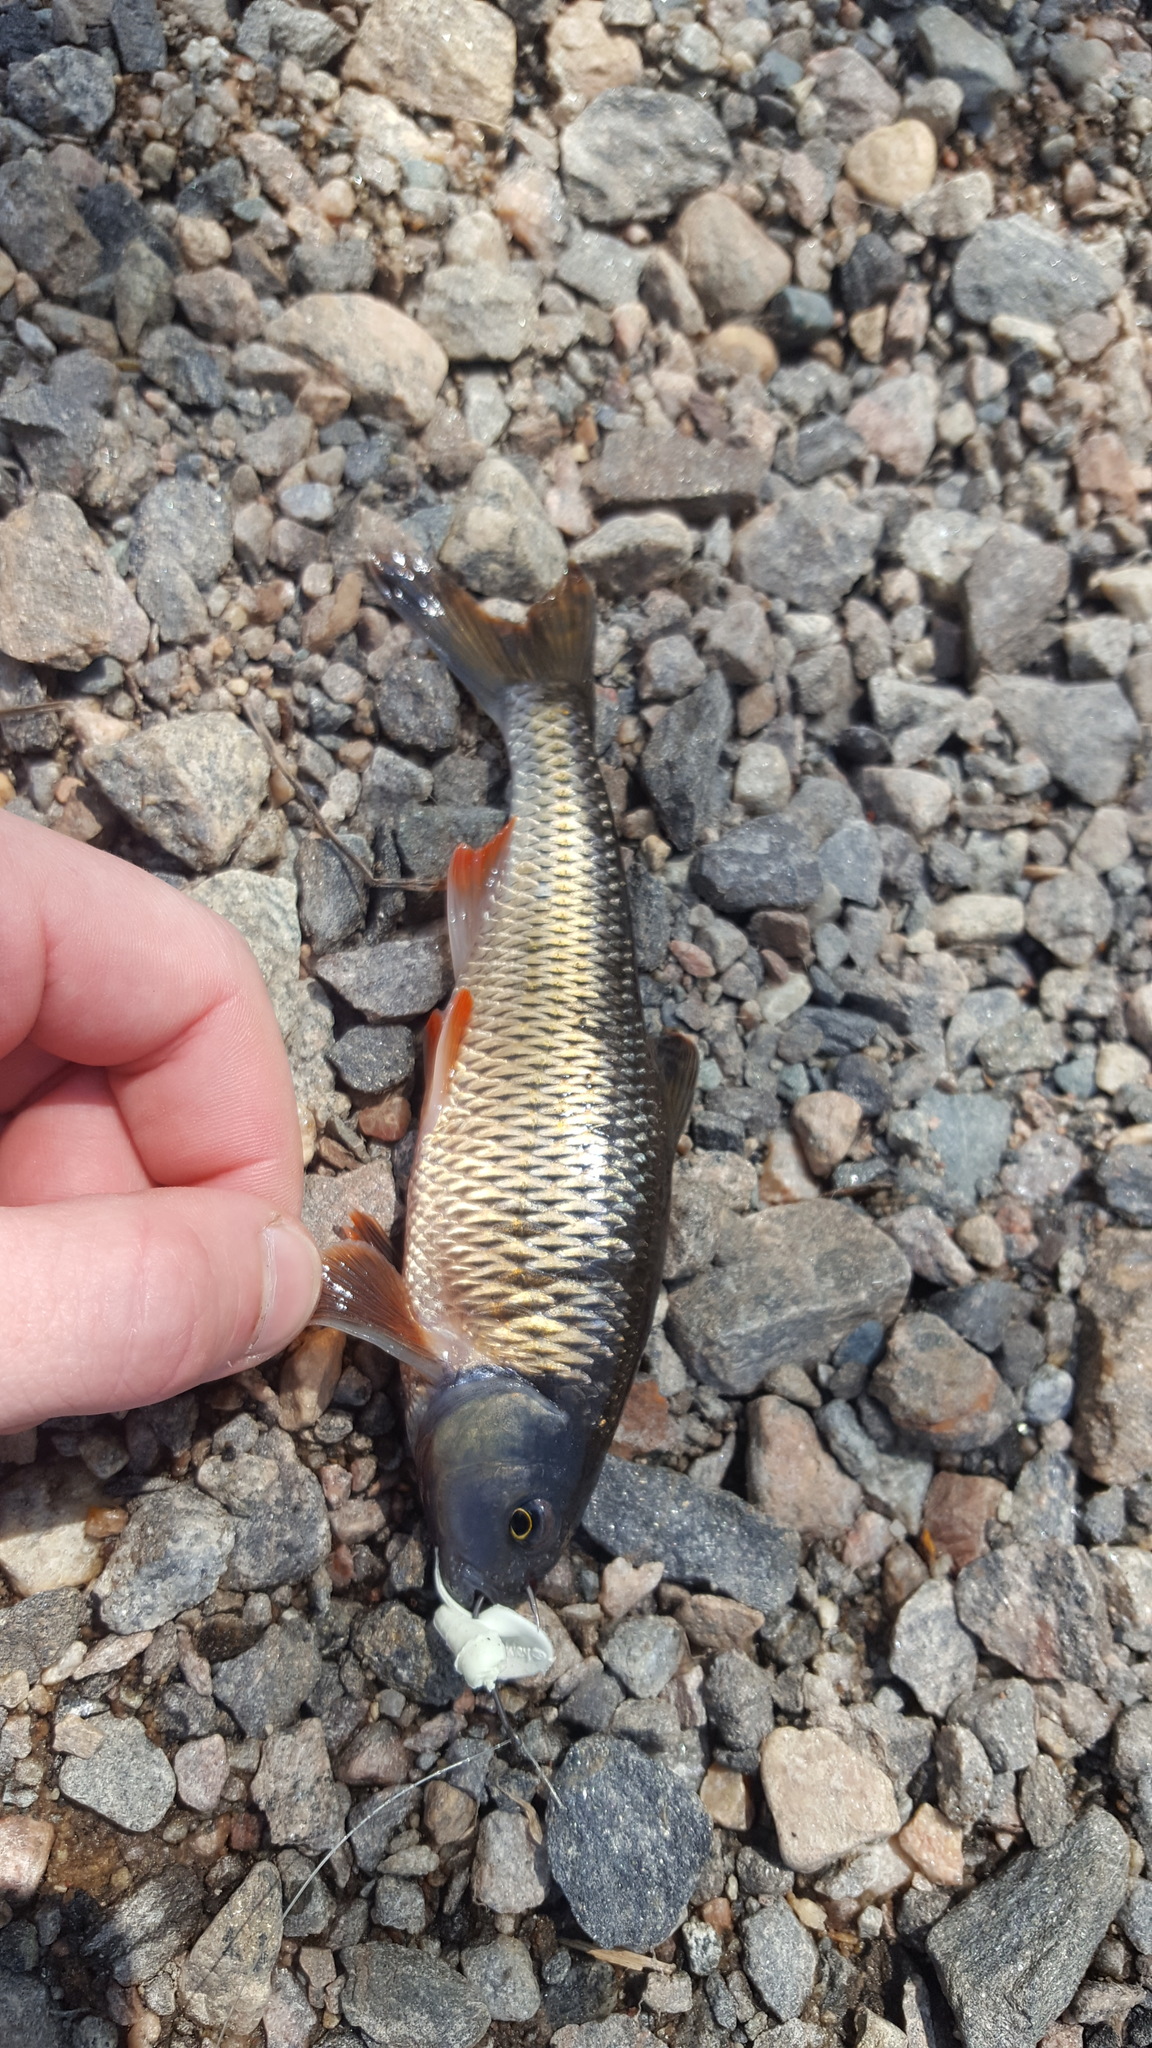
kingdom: Animalia
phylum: Chordata
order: Cypriniformes
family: Cyprinidae
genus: Luxilus
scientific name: Luxilus cornutus
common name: Common shiner
